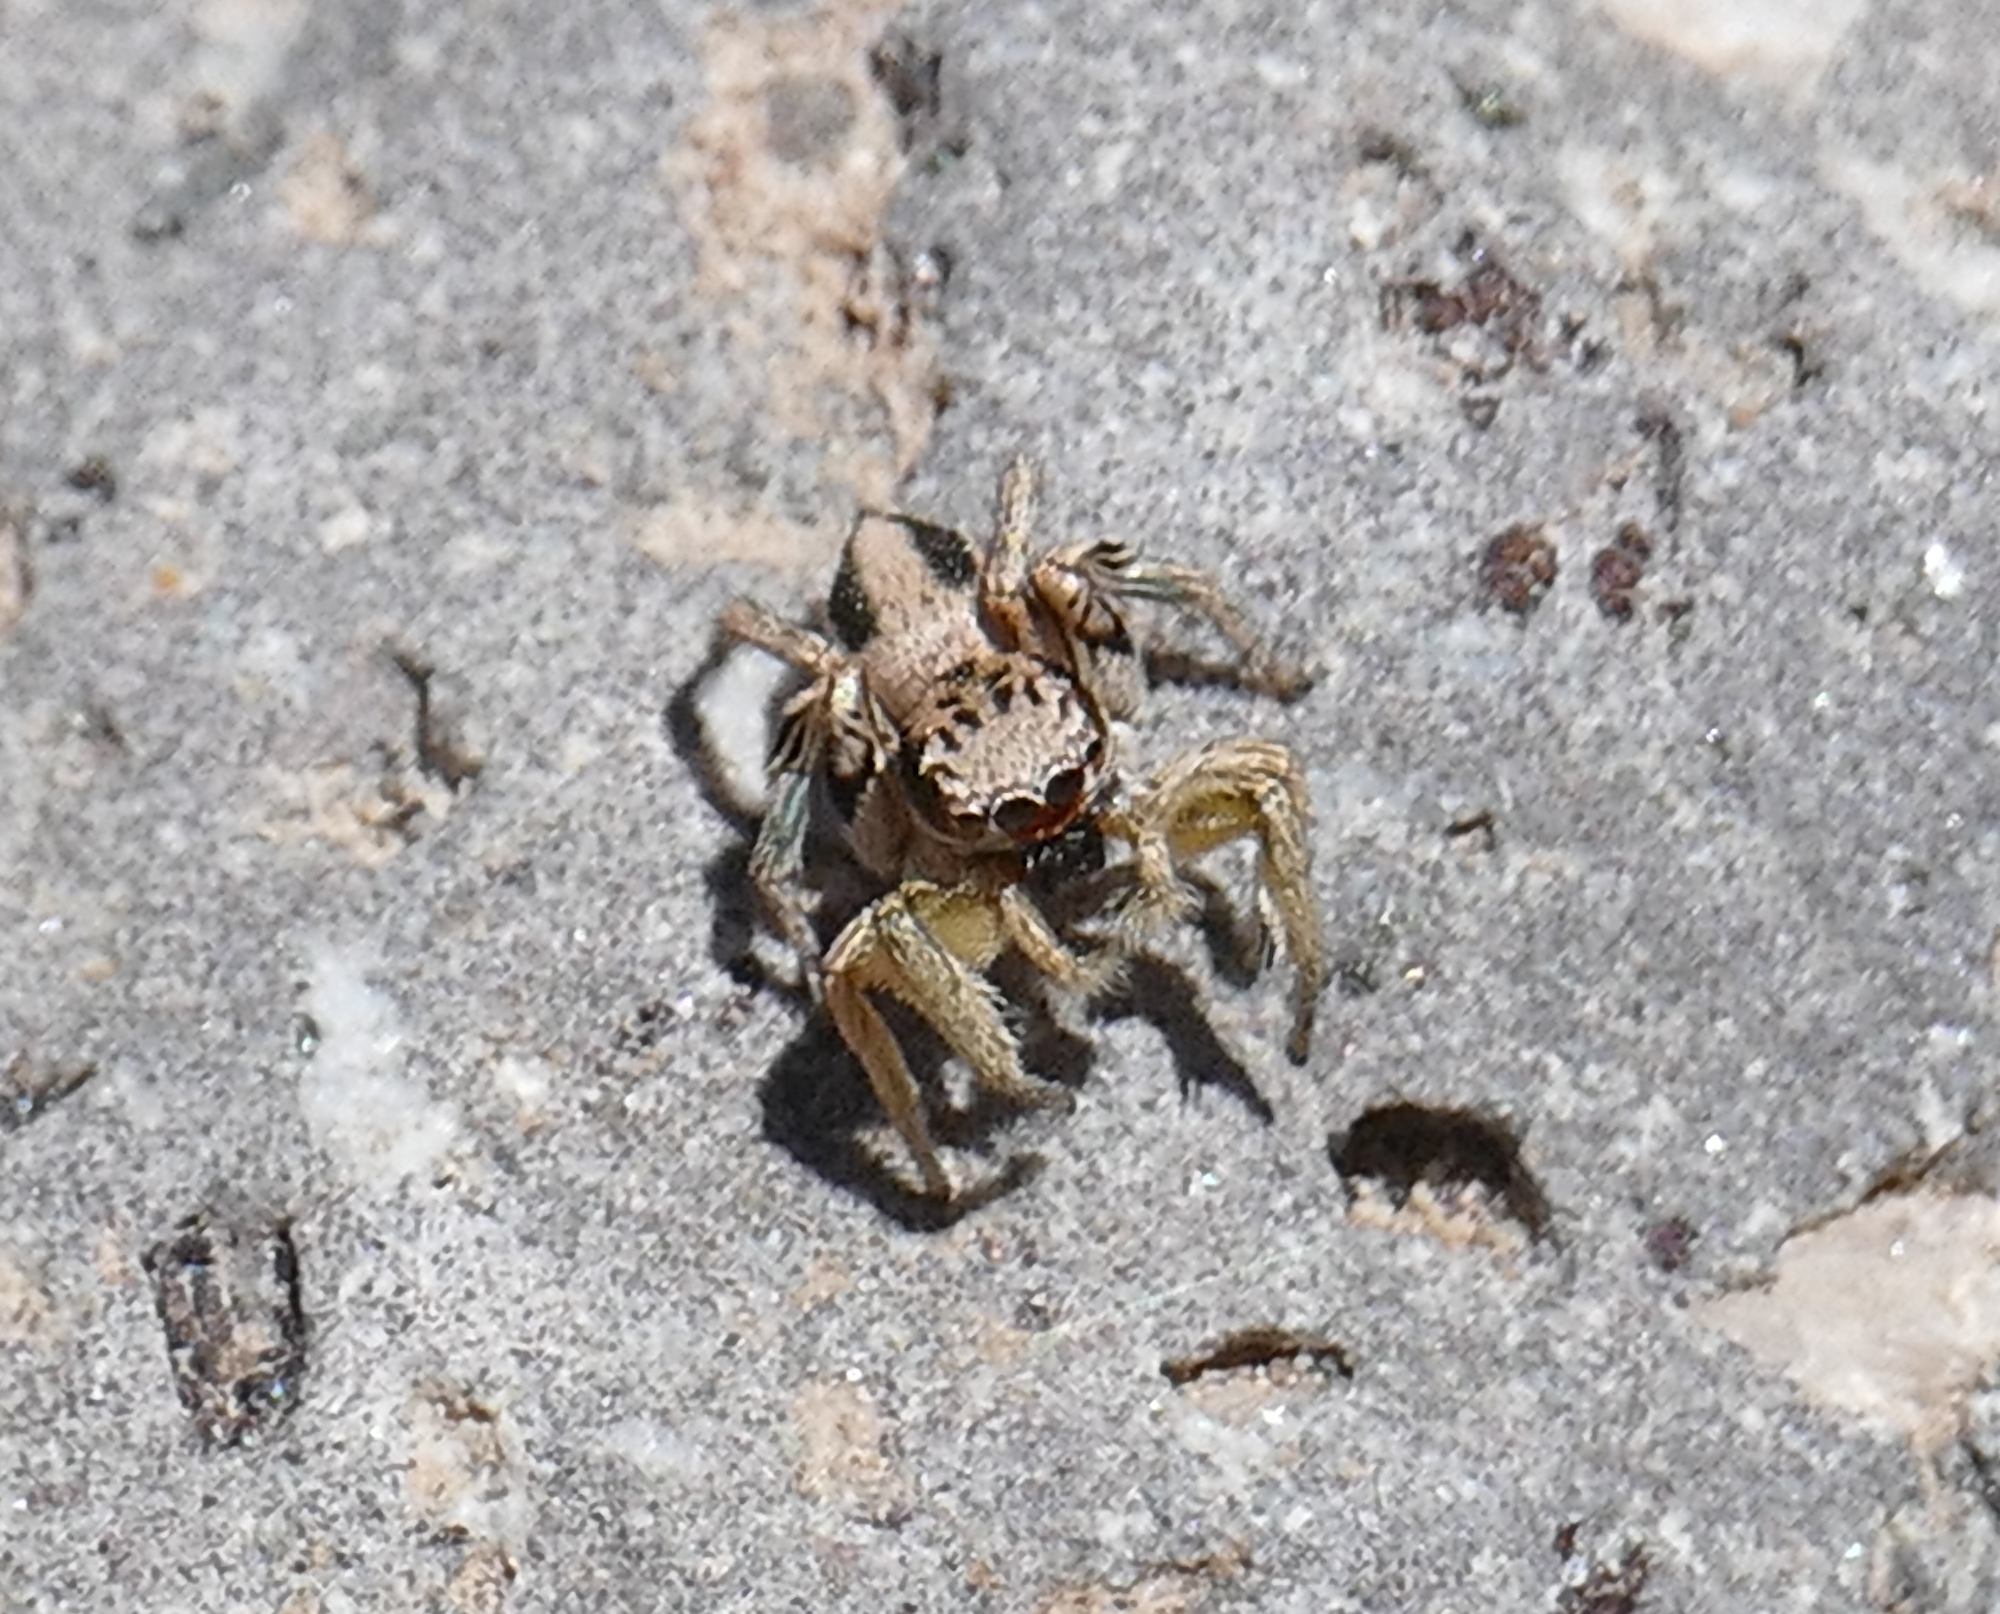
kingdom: Animalia
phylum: Arthropoda
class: Arachnida
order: Araneae
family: Salticidae
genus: Habronattus
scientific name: Habronattus virgulatus
